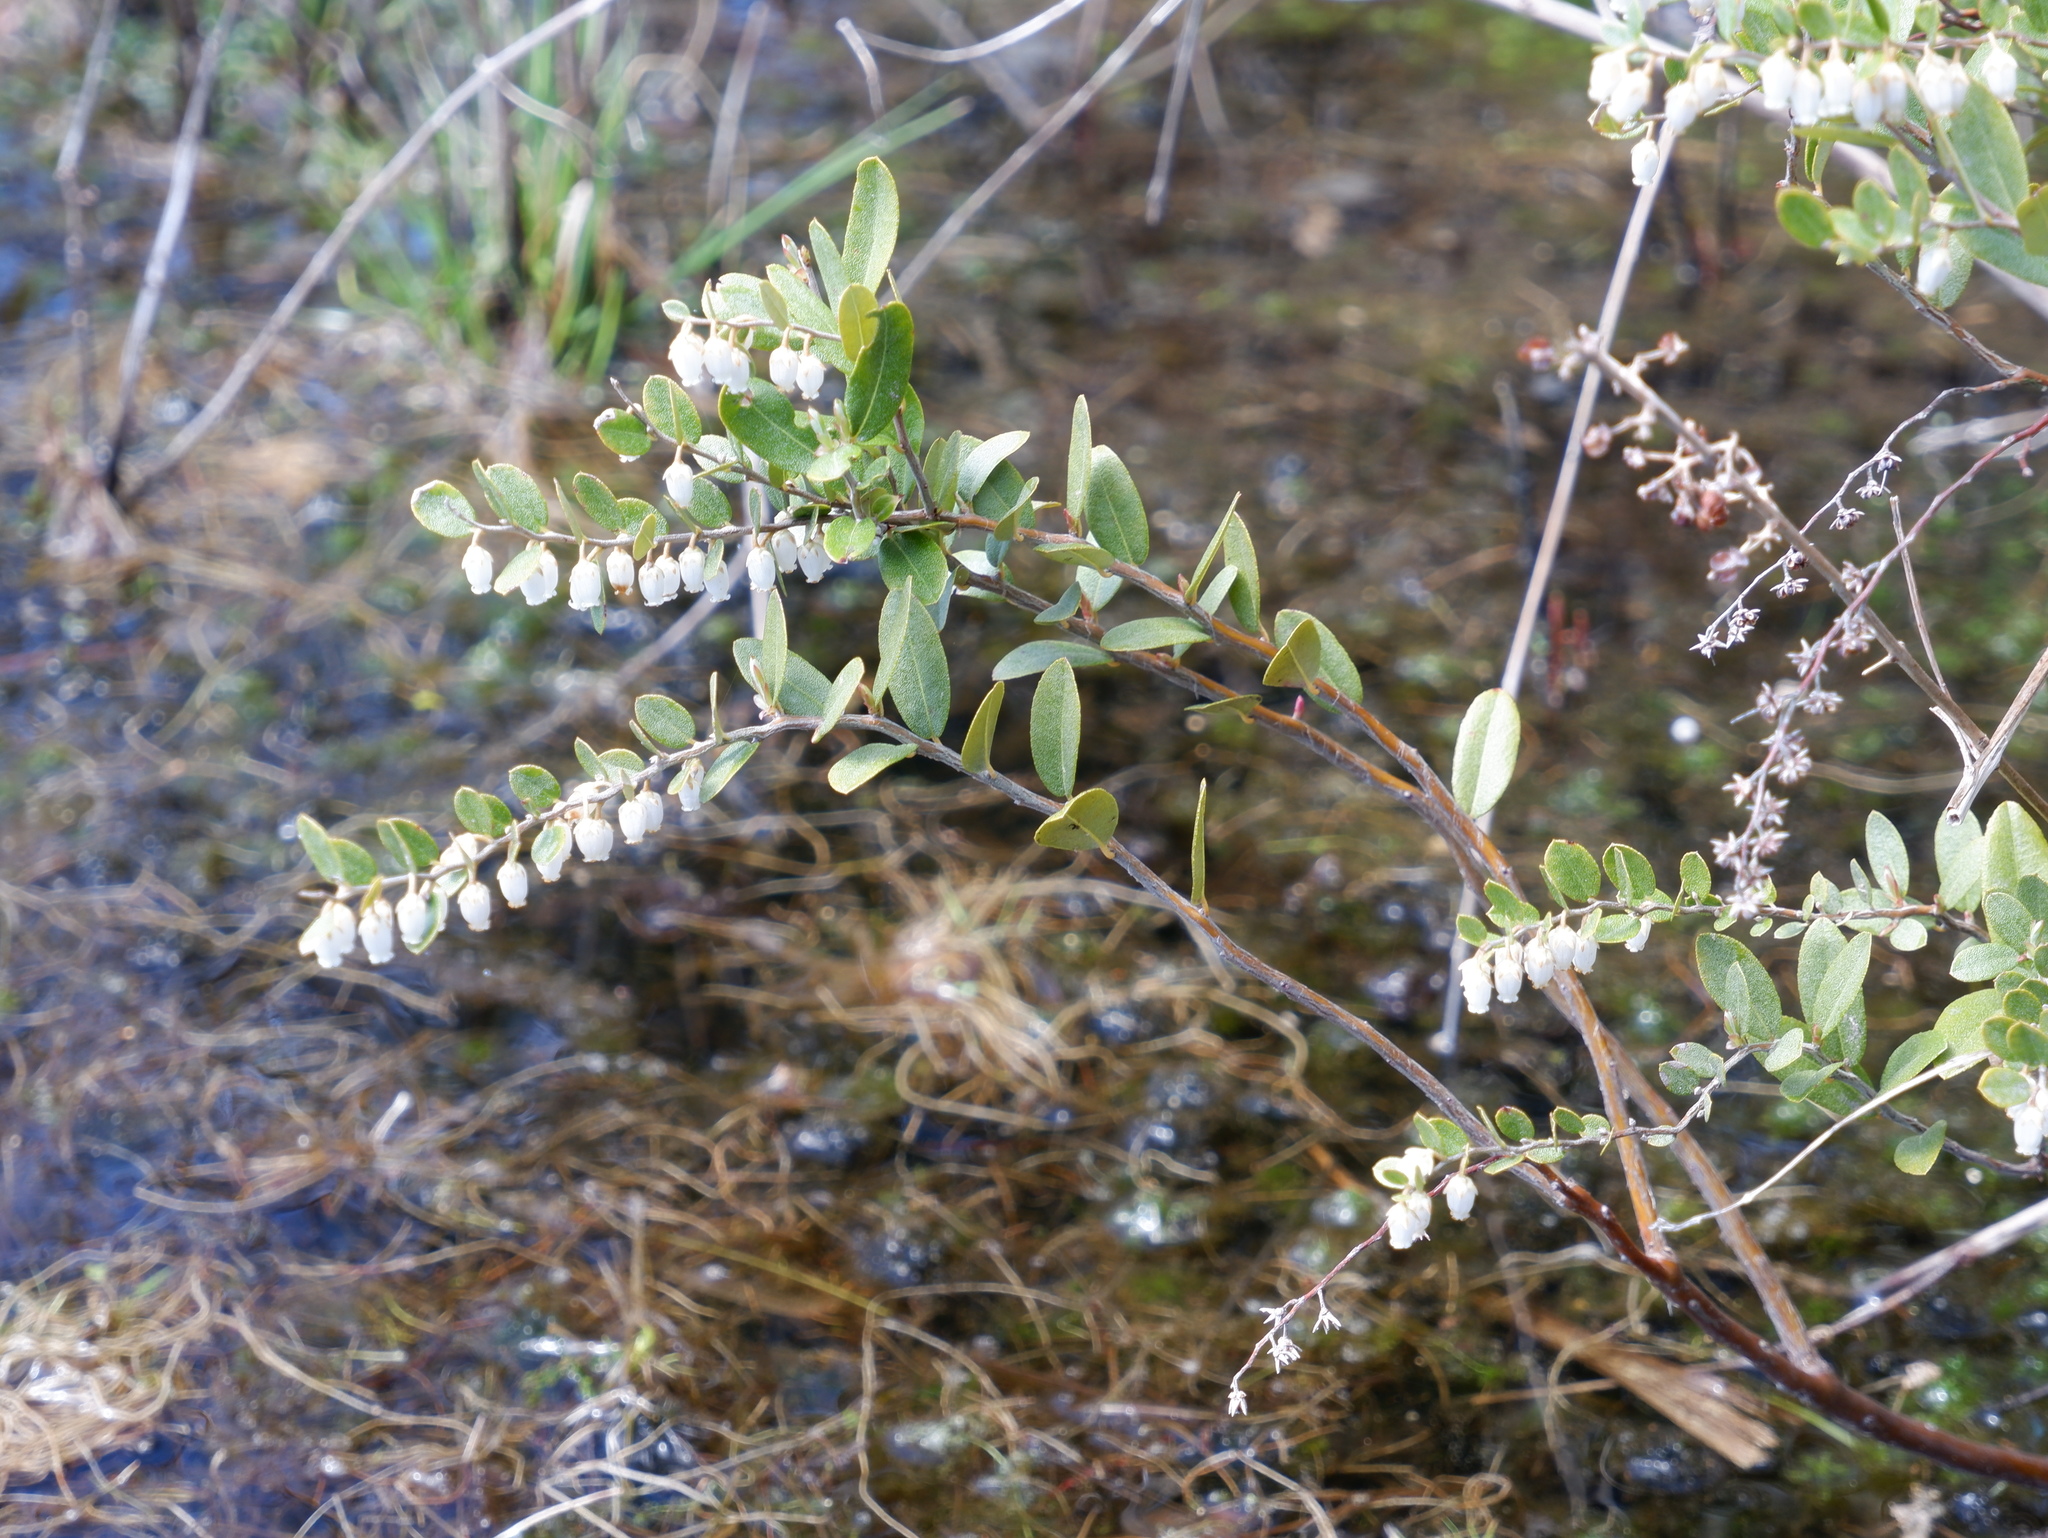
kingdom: Plantae
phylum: Tracheophyta
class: Magnoliopsida
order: Ericales
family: Ericaceae
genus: Chamaedaphne
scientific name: Chamaedaphne calyculata
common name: Leatherleaf
